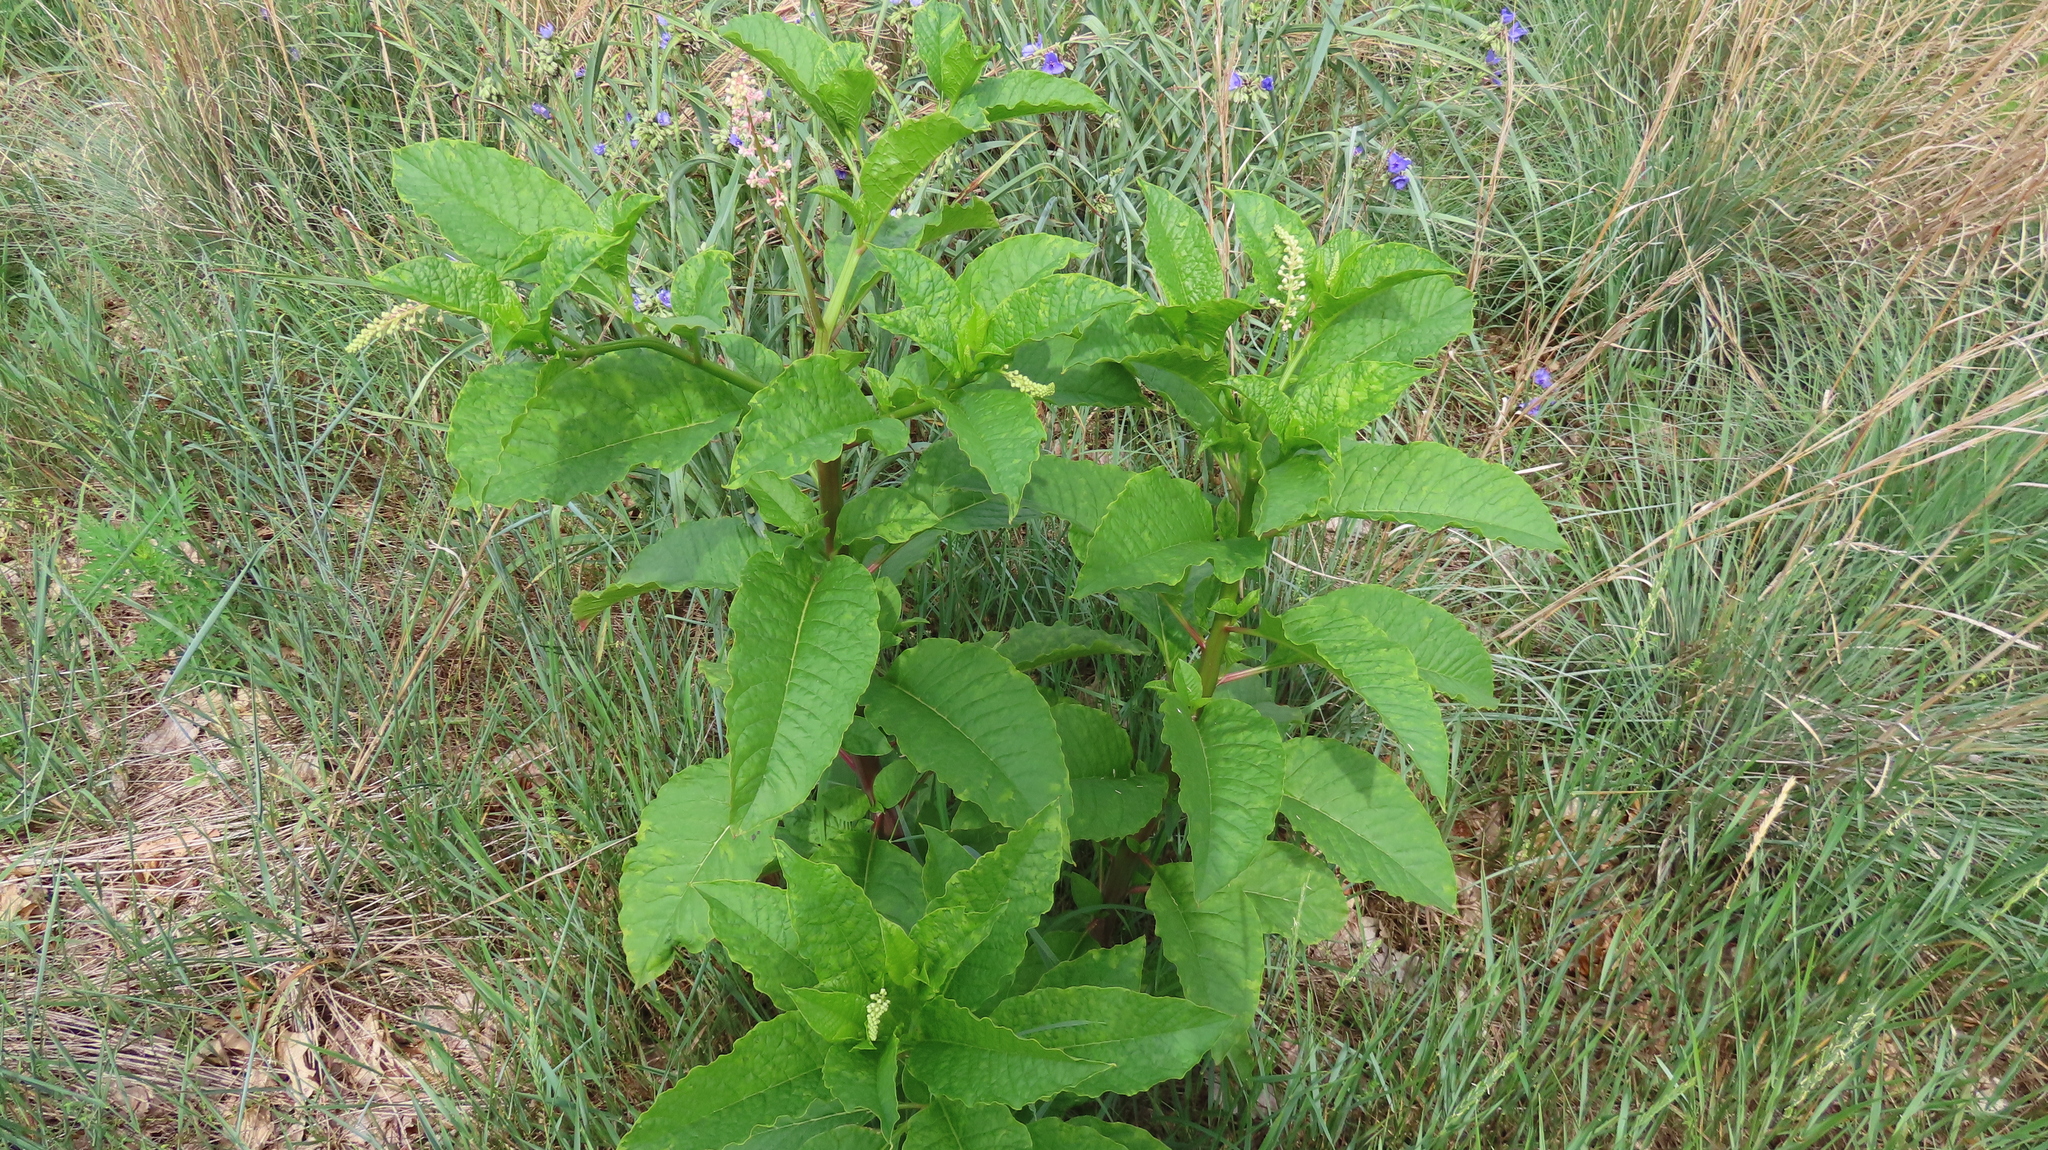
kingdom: Plantae
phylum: Tracheophyta
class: Magnoliopsida
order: Caryophyllales
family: Phytolaccaceae
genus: Phytolacca
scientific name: Phytolacca americana
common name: American pokeweed
